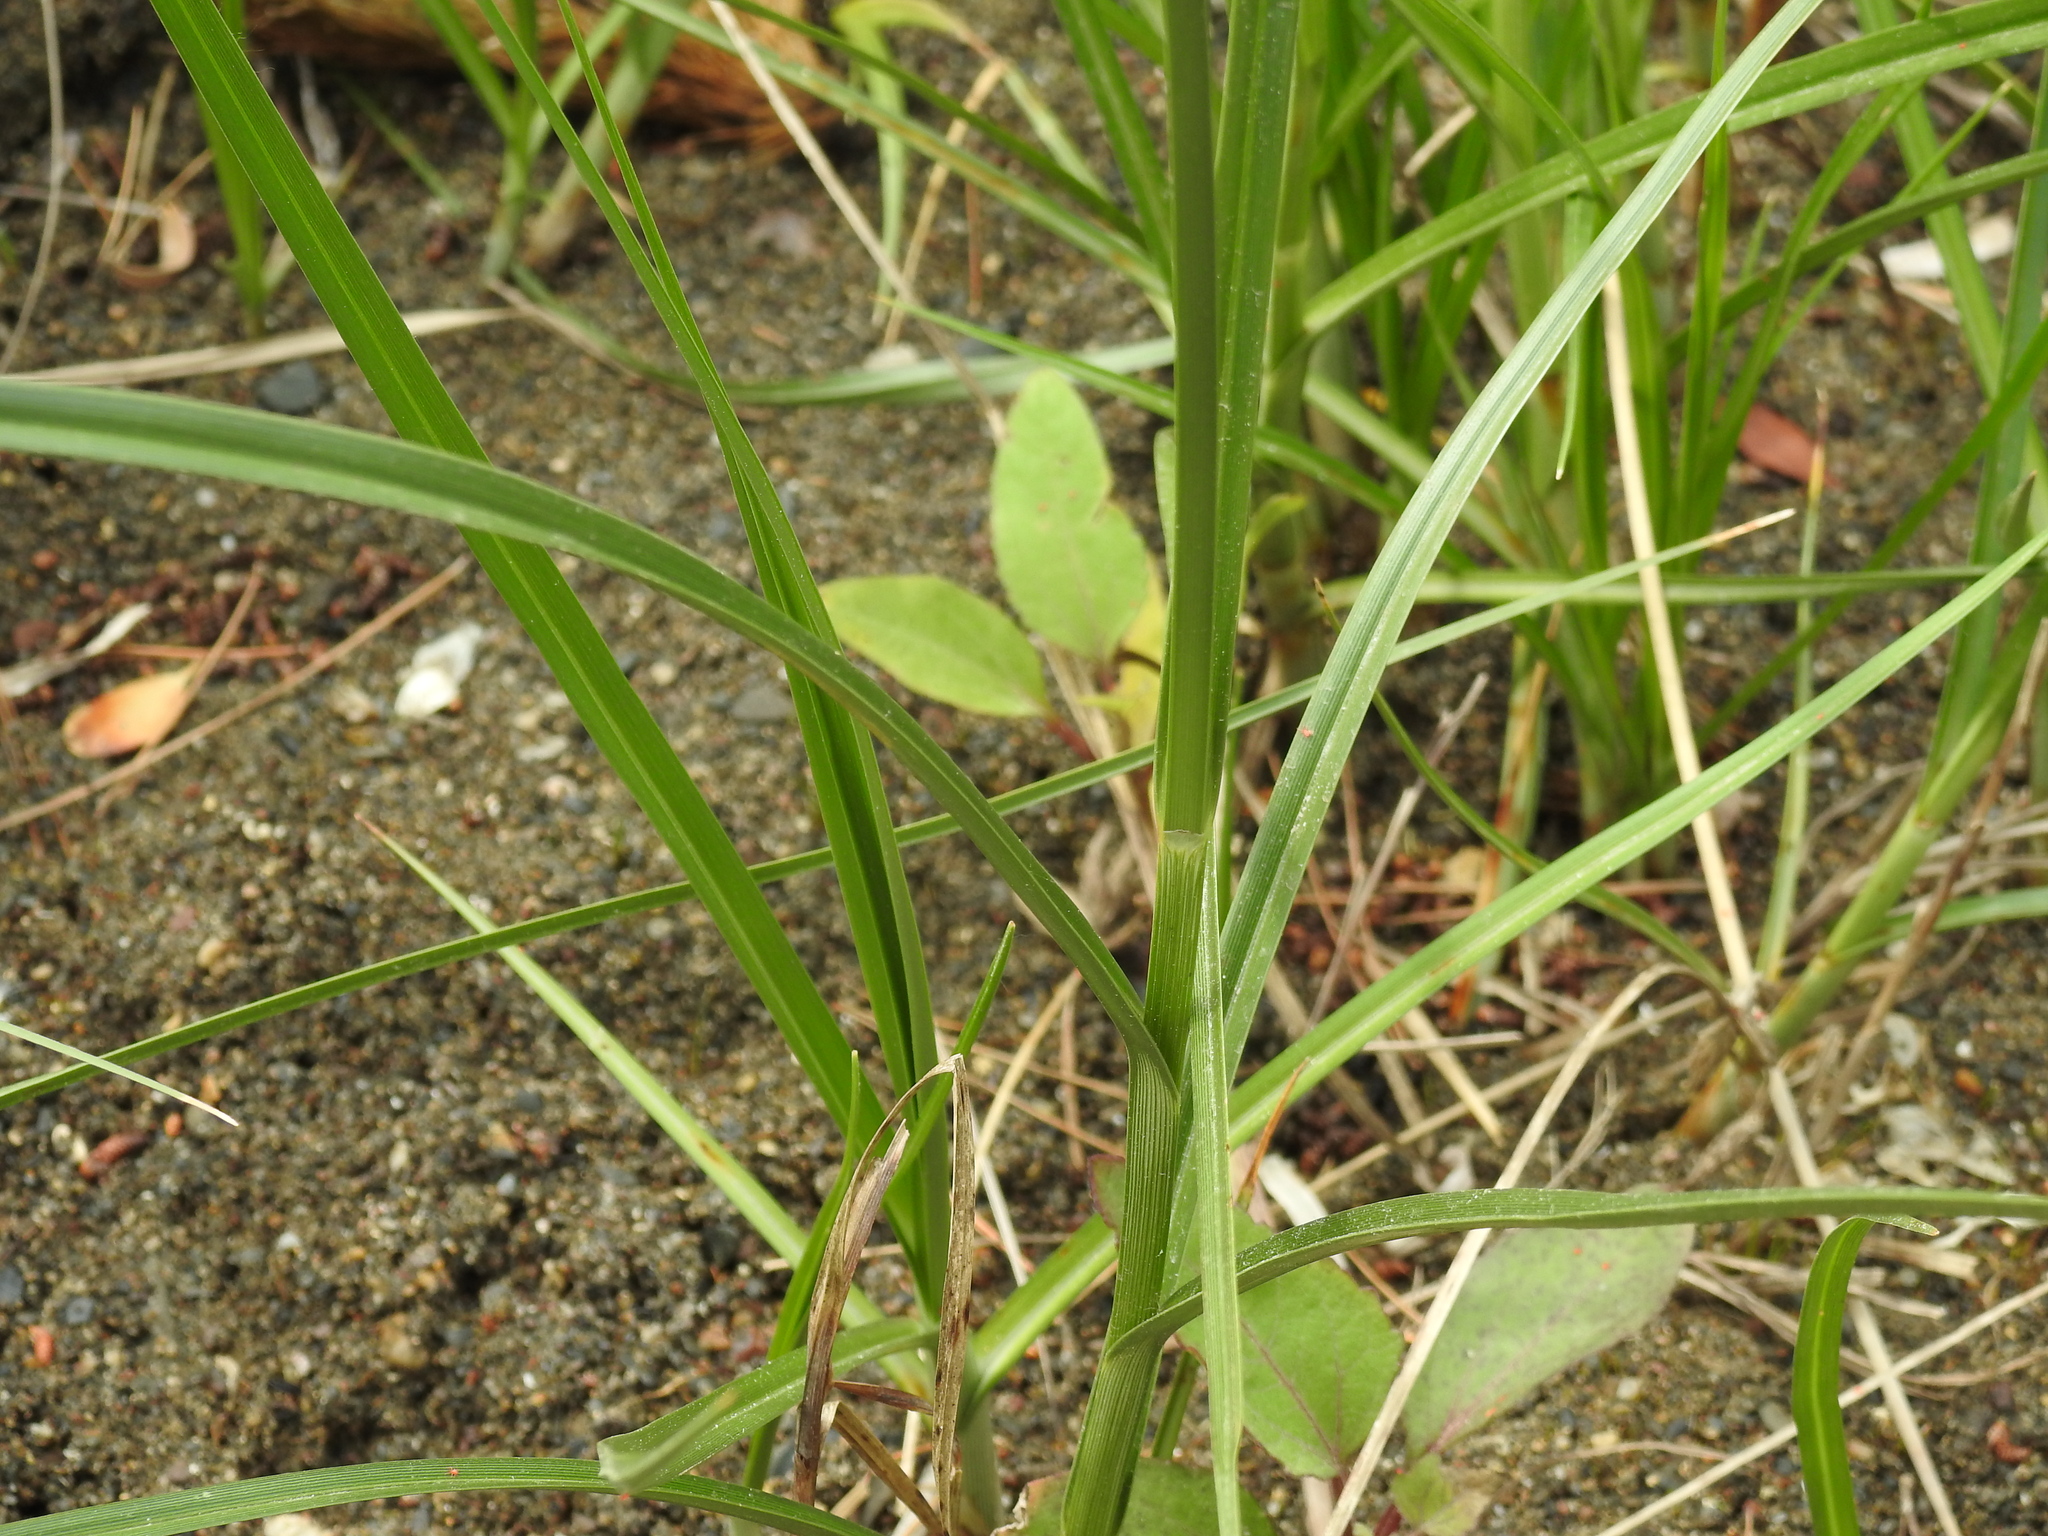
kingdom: Plantae
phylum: Tracheophyta
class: Liliopsida
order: Poales
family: Cyperaceae
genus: Bolboschoenus
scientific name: Bolboschoenus maritimus
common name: Sea club-rush
